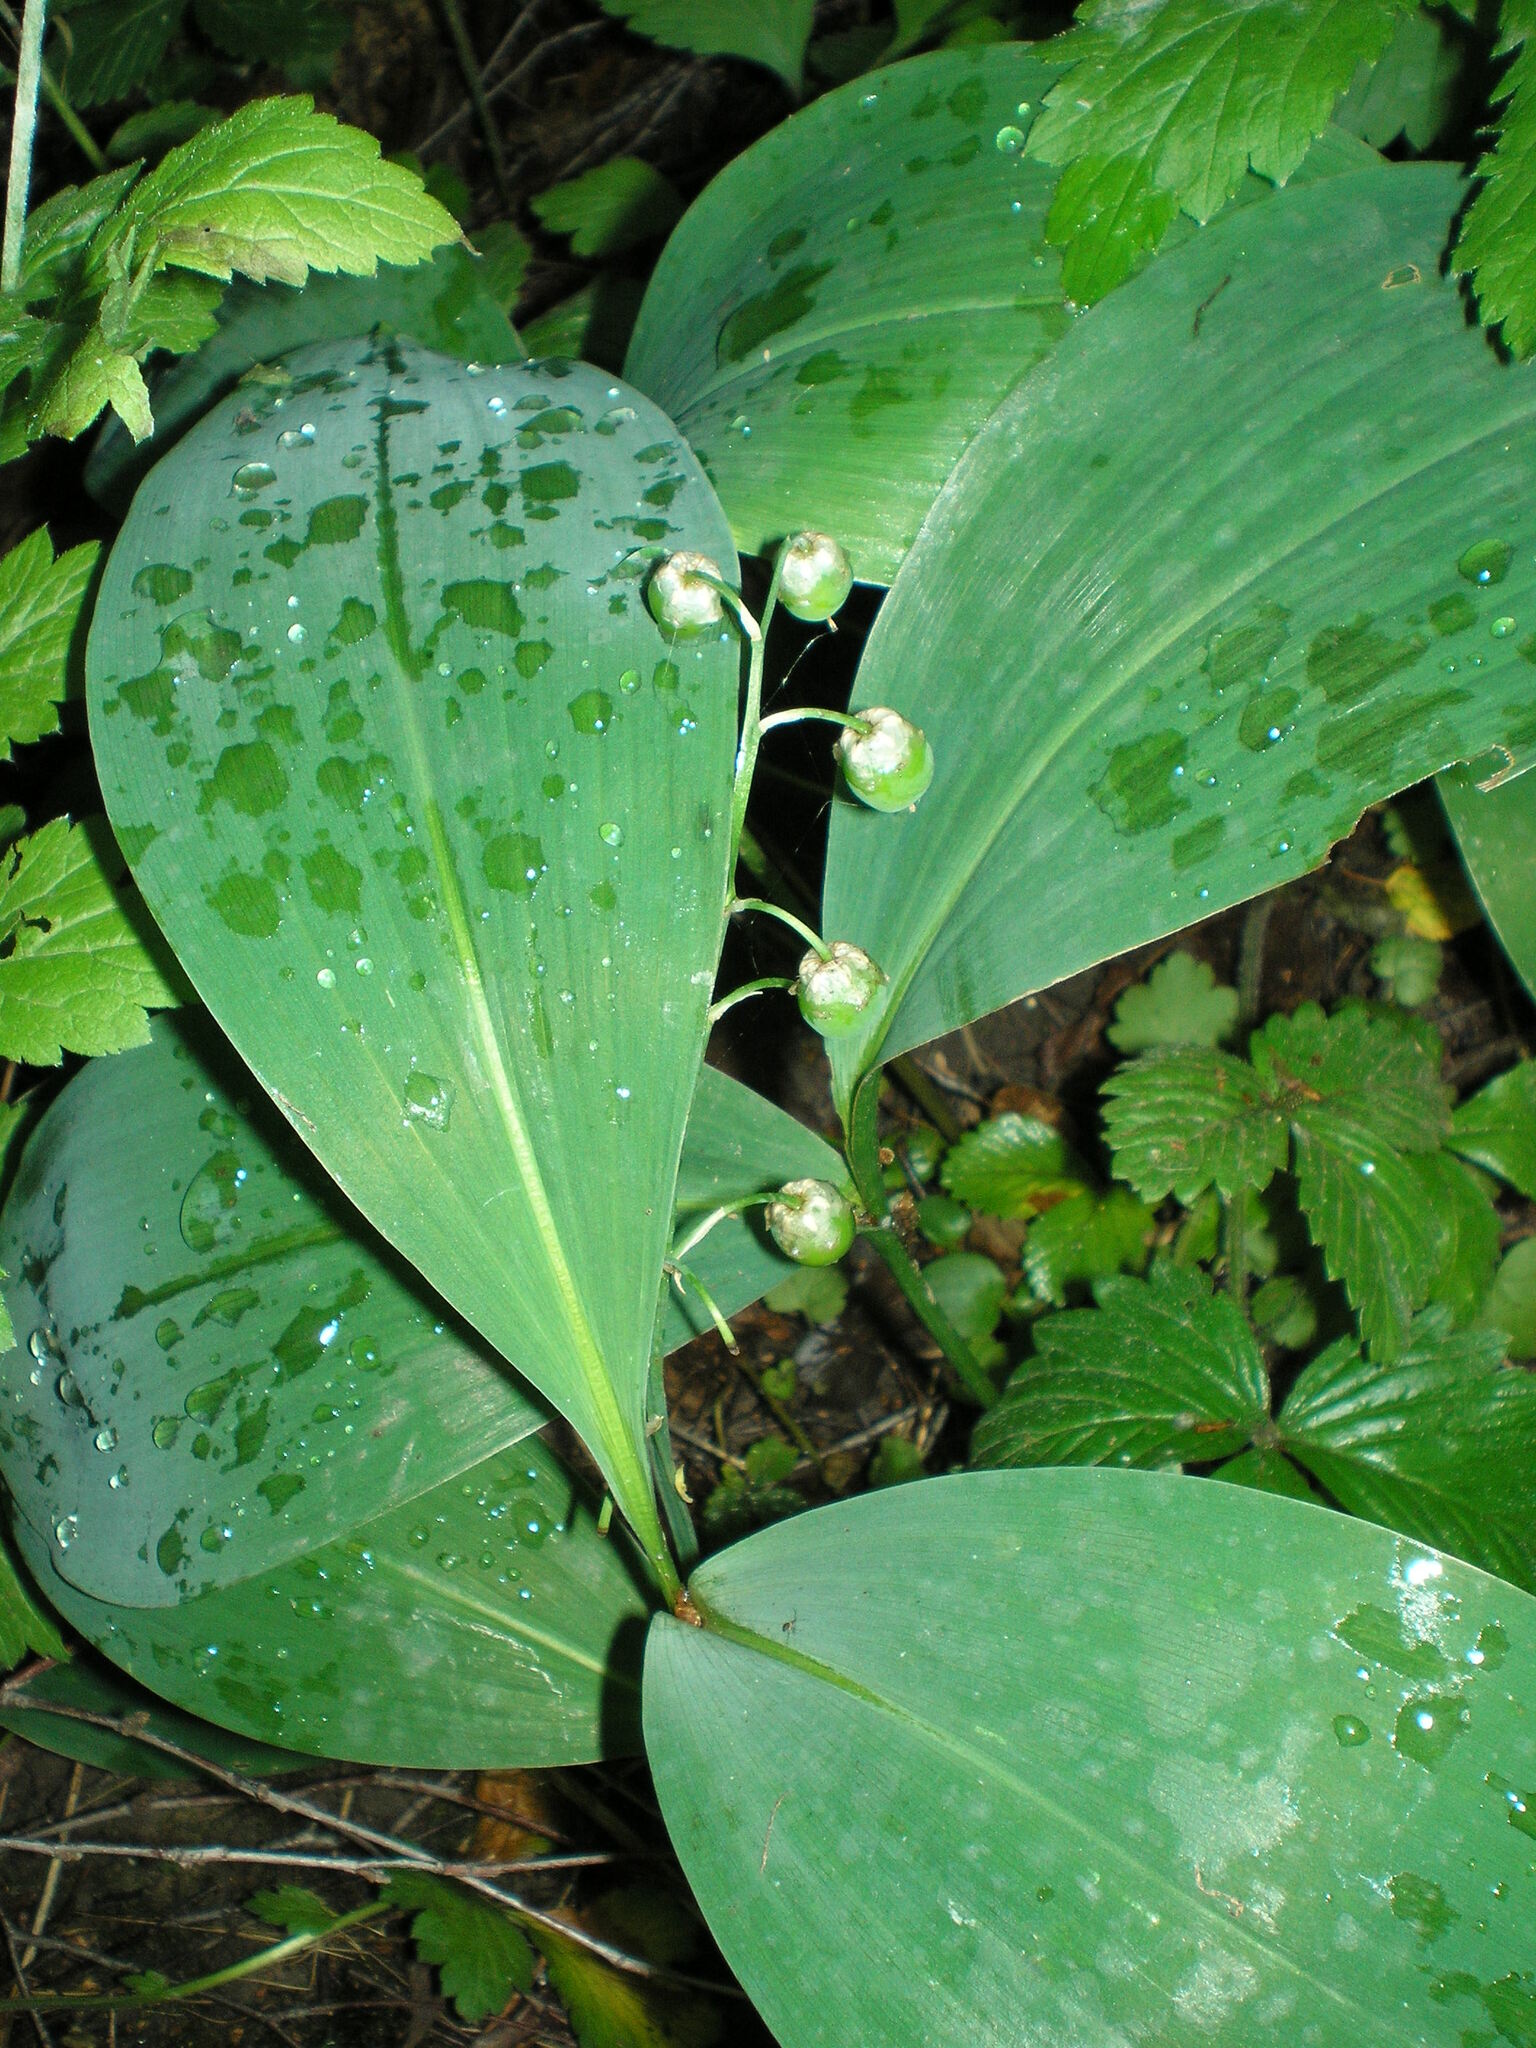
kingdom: Plantae
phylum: Tracheophyta
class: Liliopsida
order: Asparagales
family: Asparagaceae
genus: Convallaria
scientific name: Convallaria majalis
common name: Lily-of-the-valley
